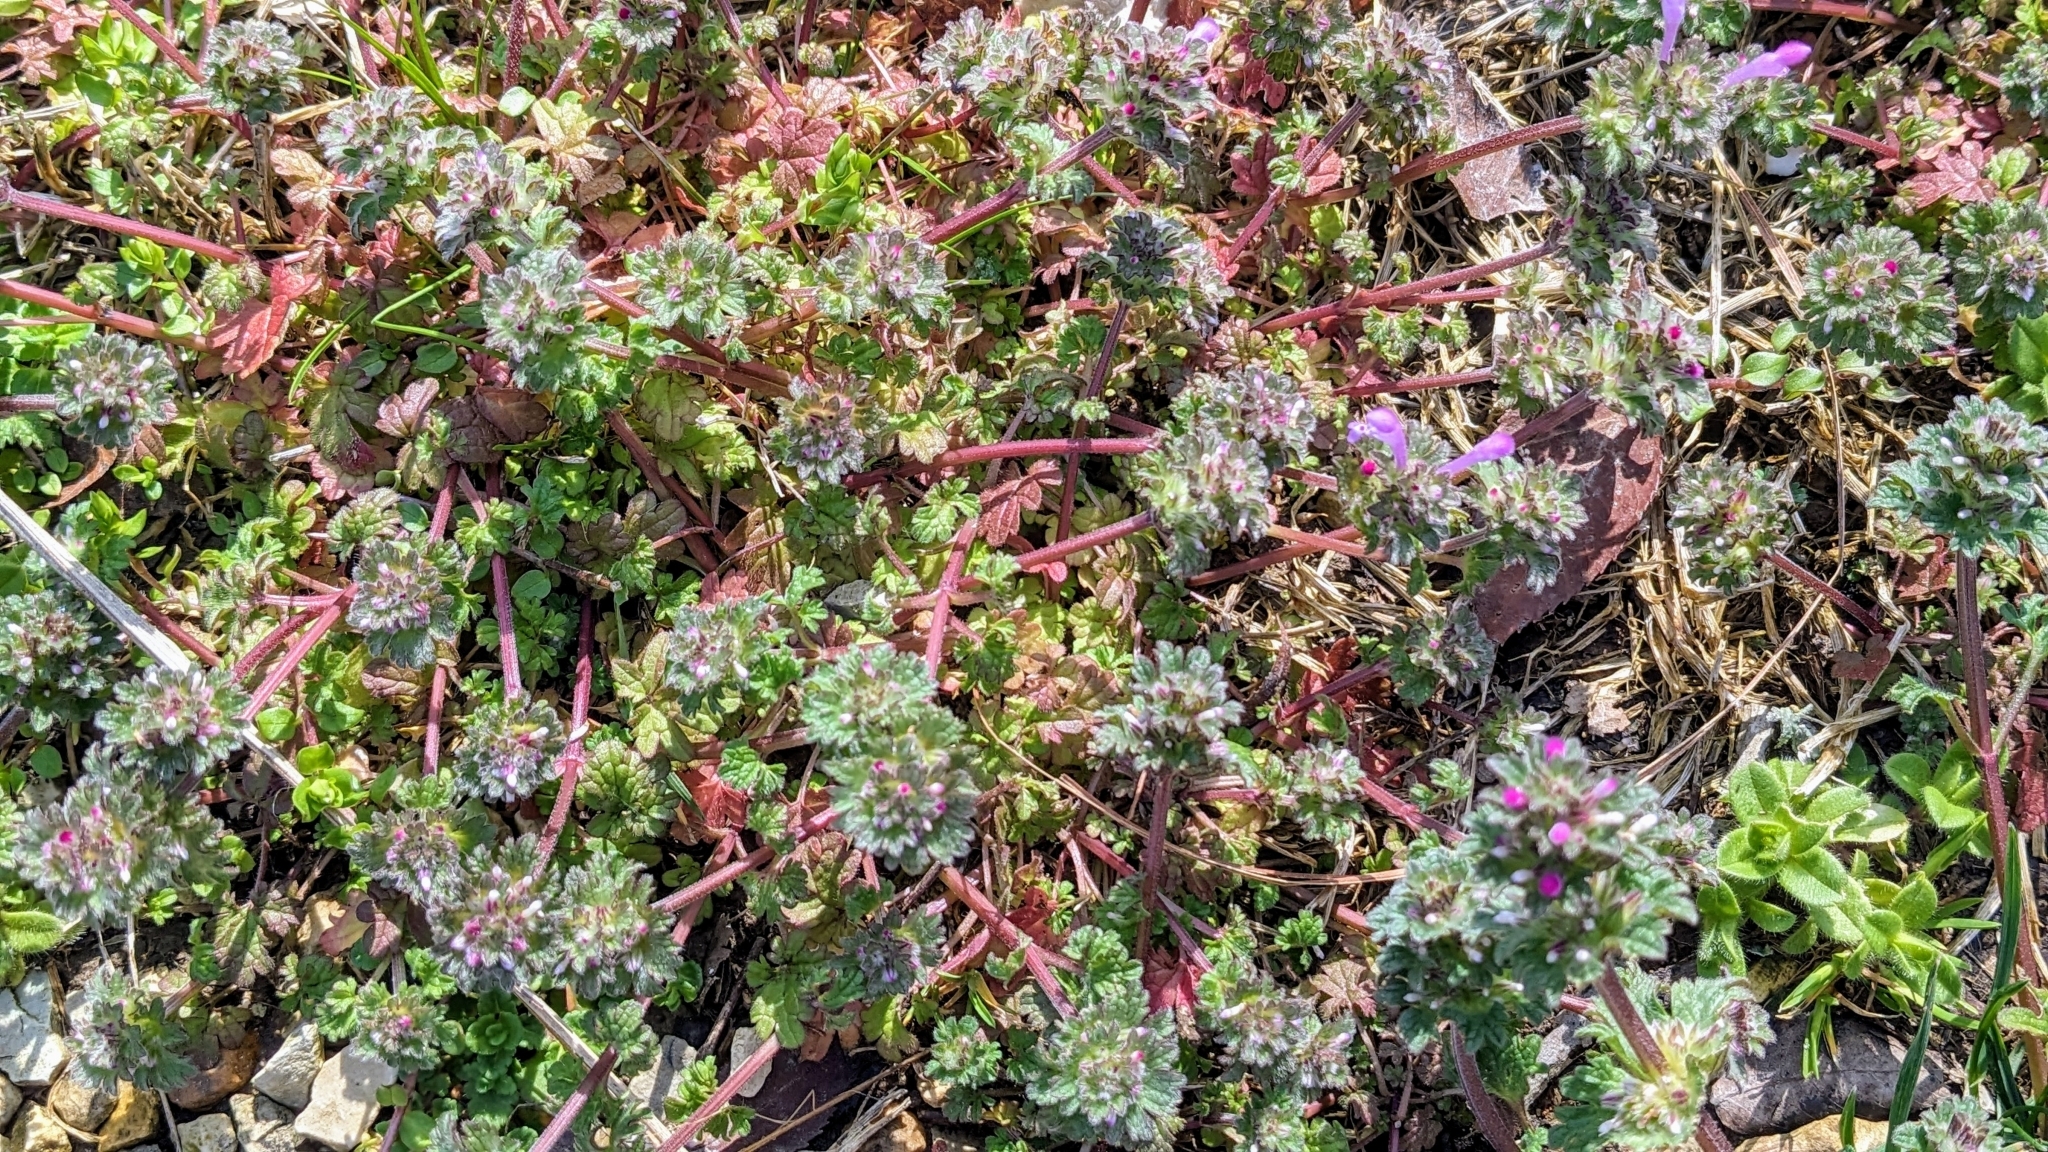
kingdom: Plantae
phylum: Tracheophyta
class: Magnoliopsida
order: Lamiales
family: Lamiaceae
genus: Lamium
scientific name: Lamium amplexicaule
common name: Henbit dead-nettle
